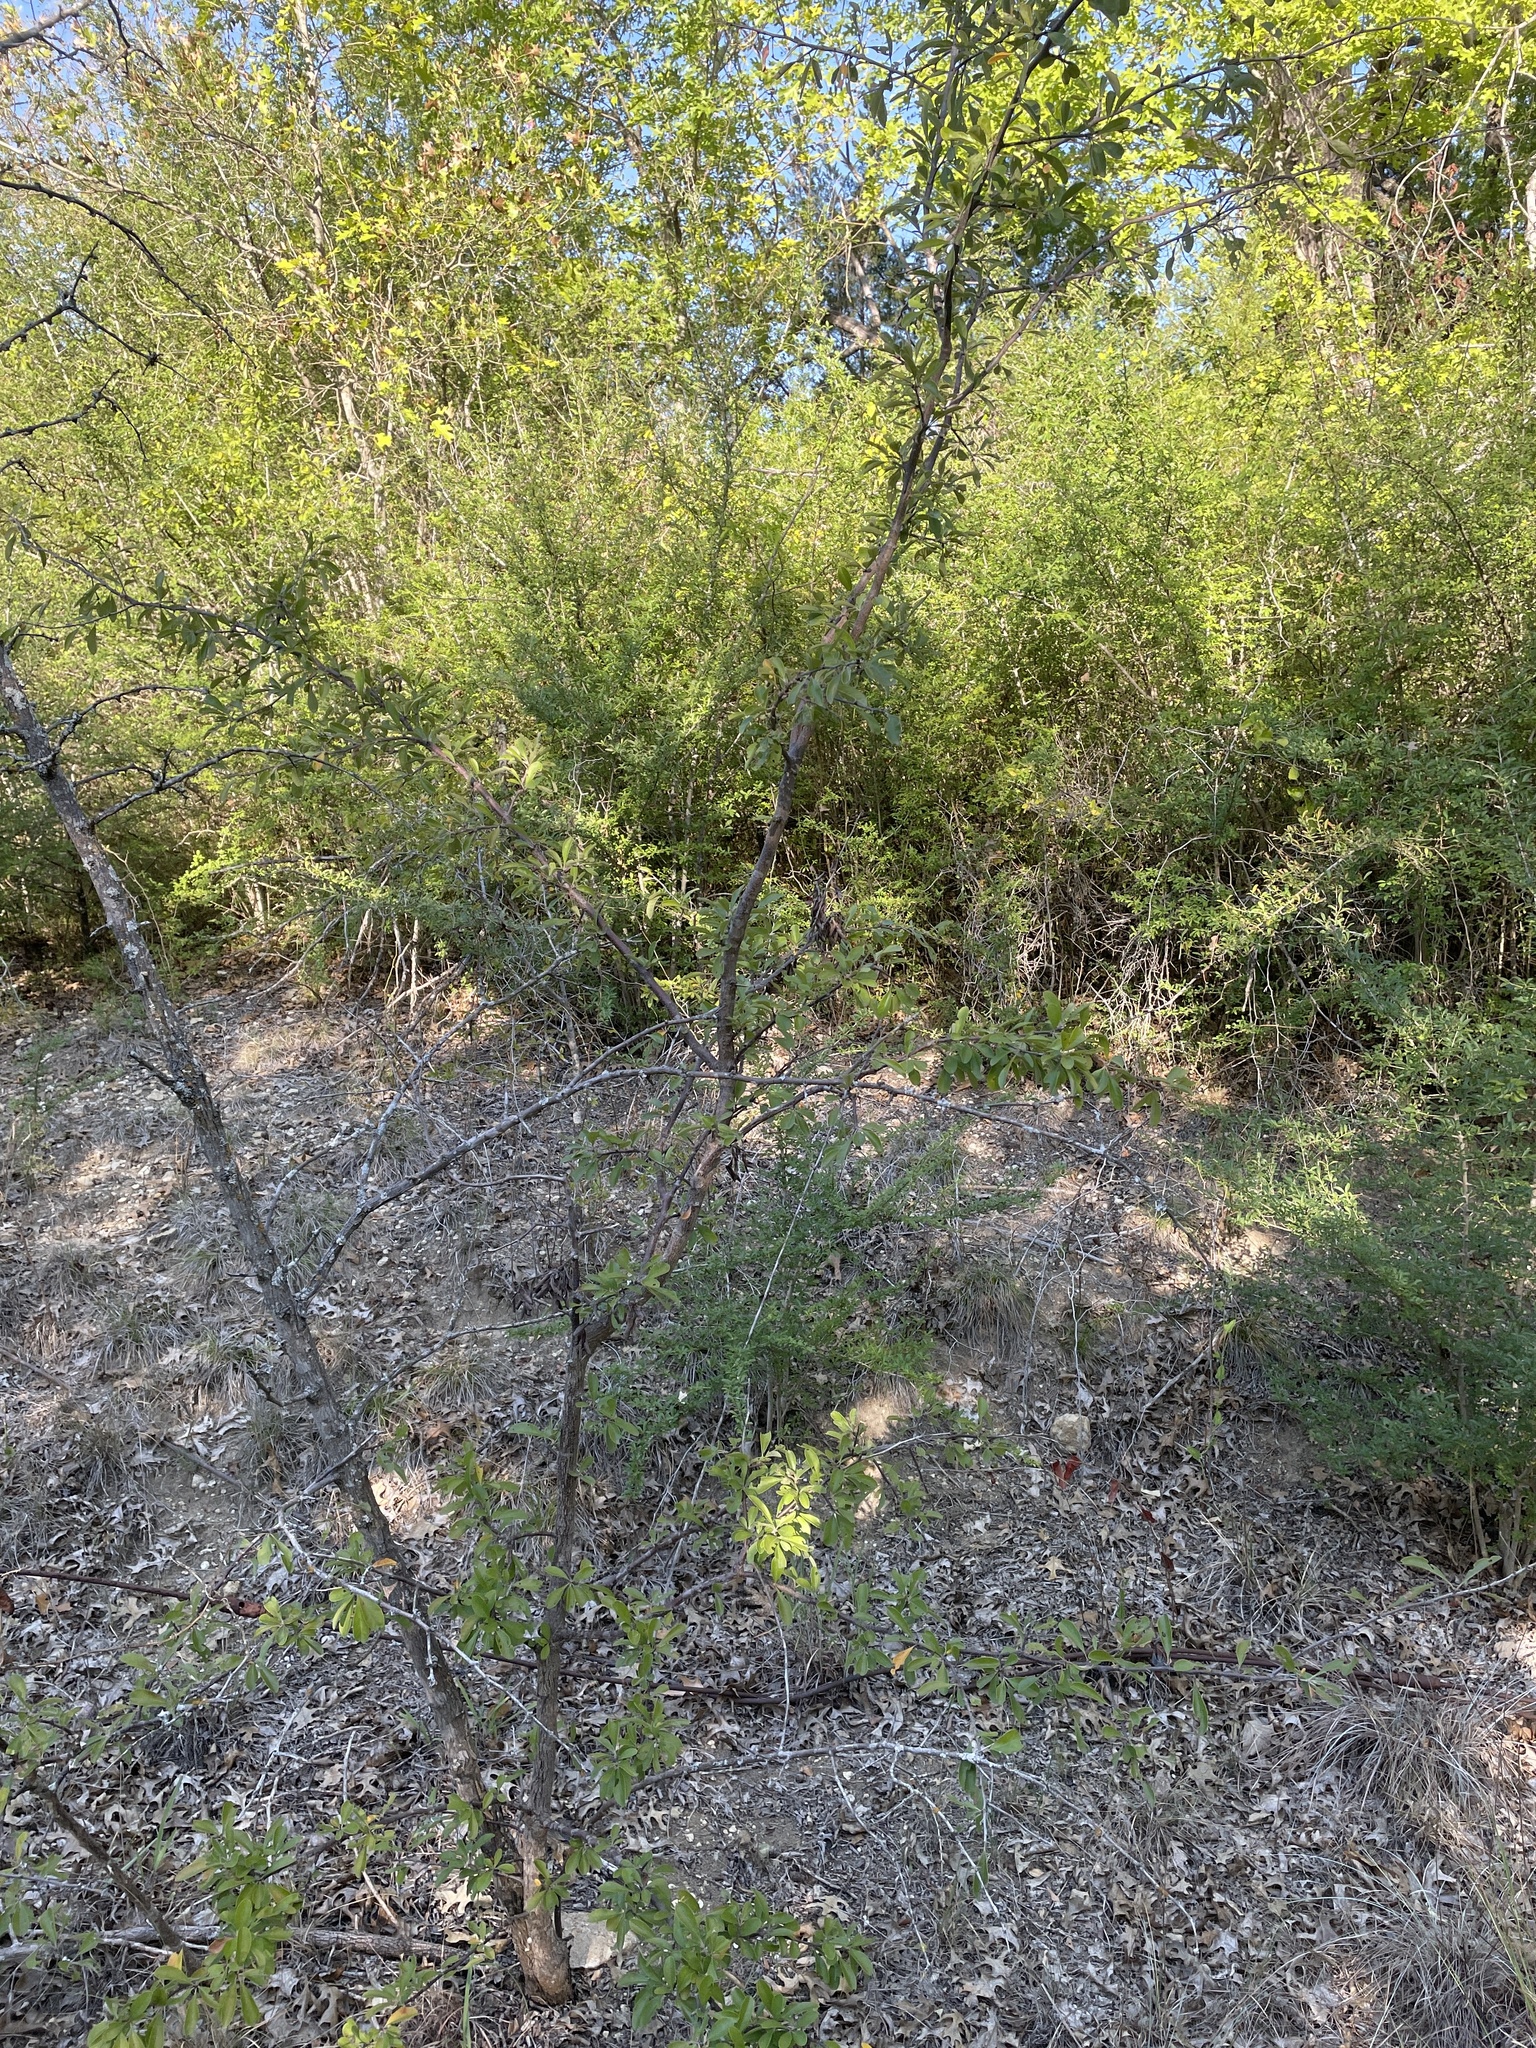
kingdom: Plantae
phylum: Tracheophyta
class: Magnoliopsida
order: Ericales
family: Sapotaceae
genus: Sideroxylon
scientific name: Sideroxylon lanuginosum
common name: Chittamwood
